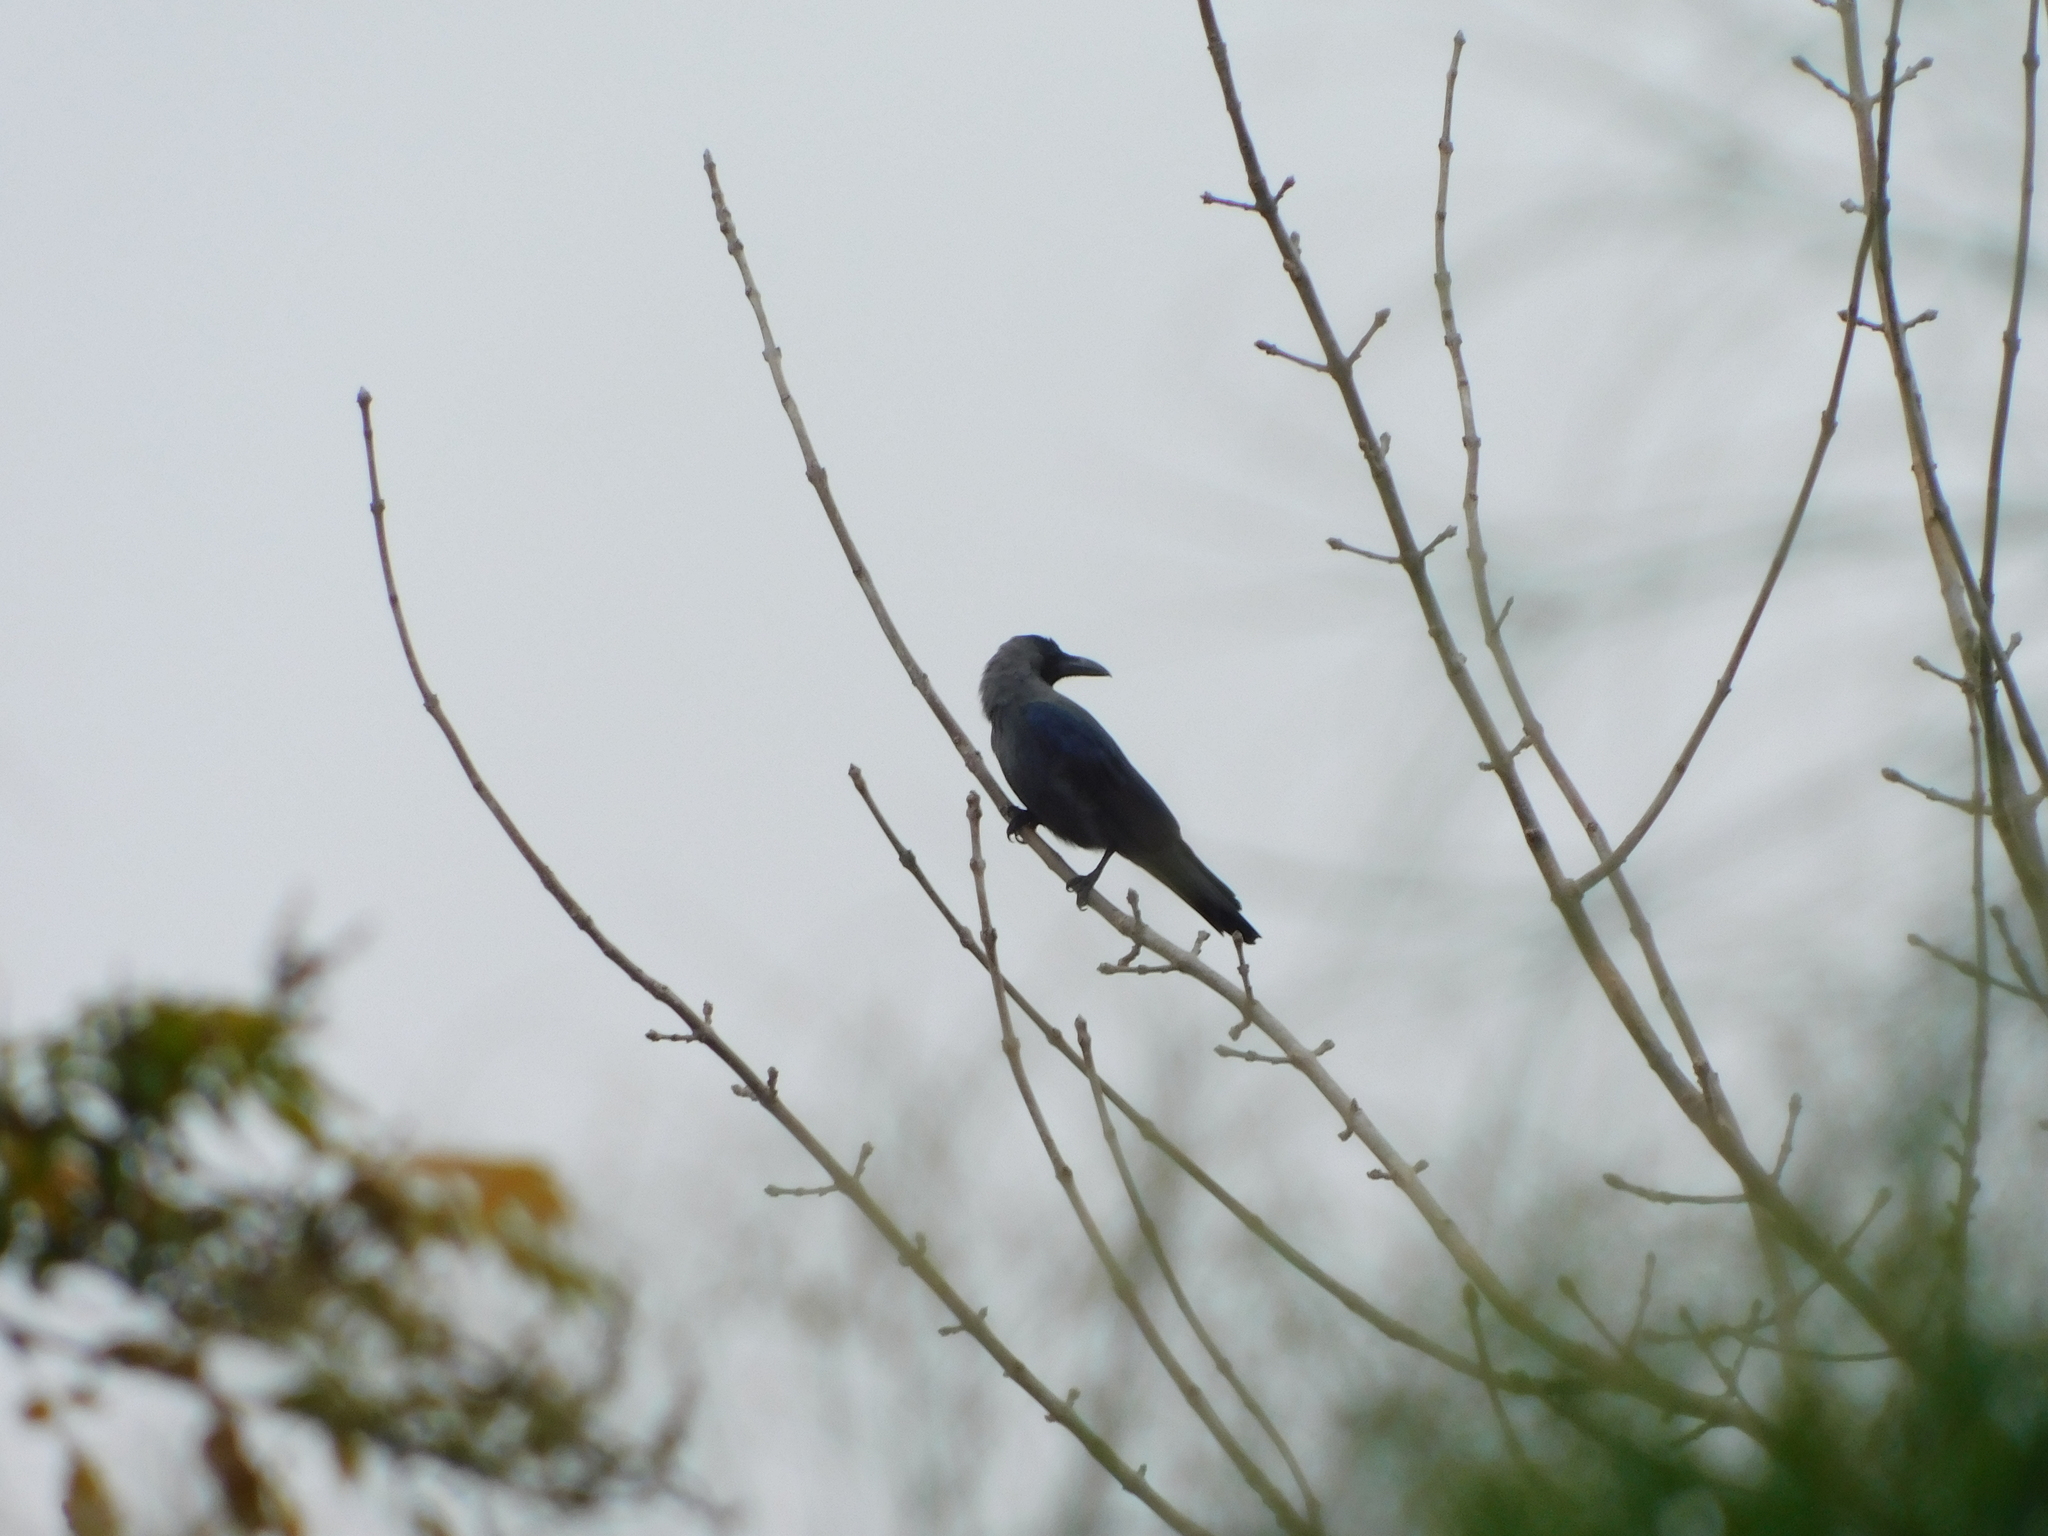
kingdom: Animalia
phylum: Chordata
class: Aves
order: Passeriformes
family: Corvidae
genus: Corvus
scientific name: Corvus splendens
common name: House crow
